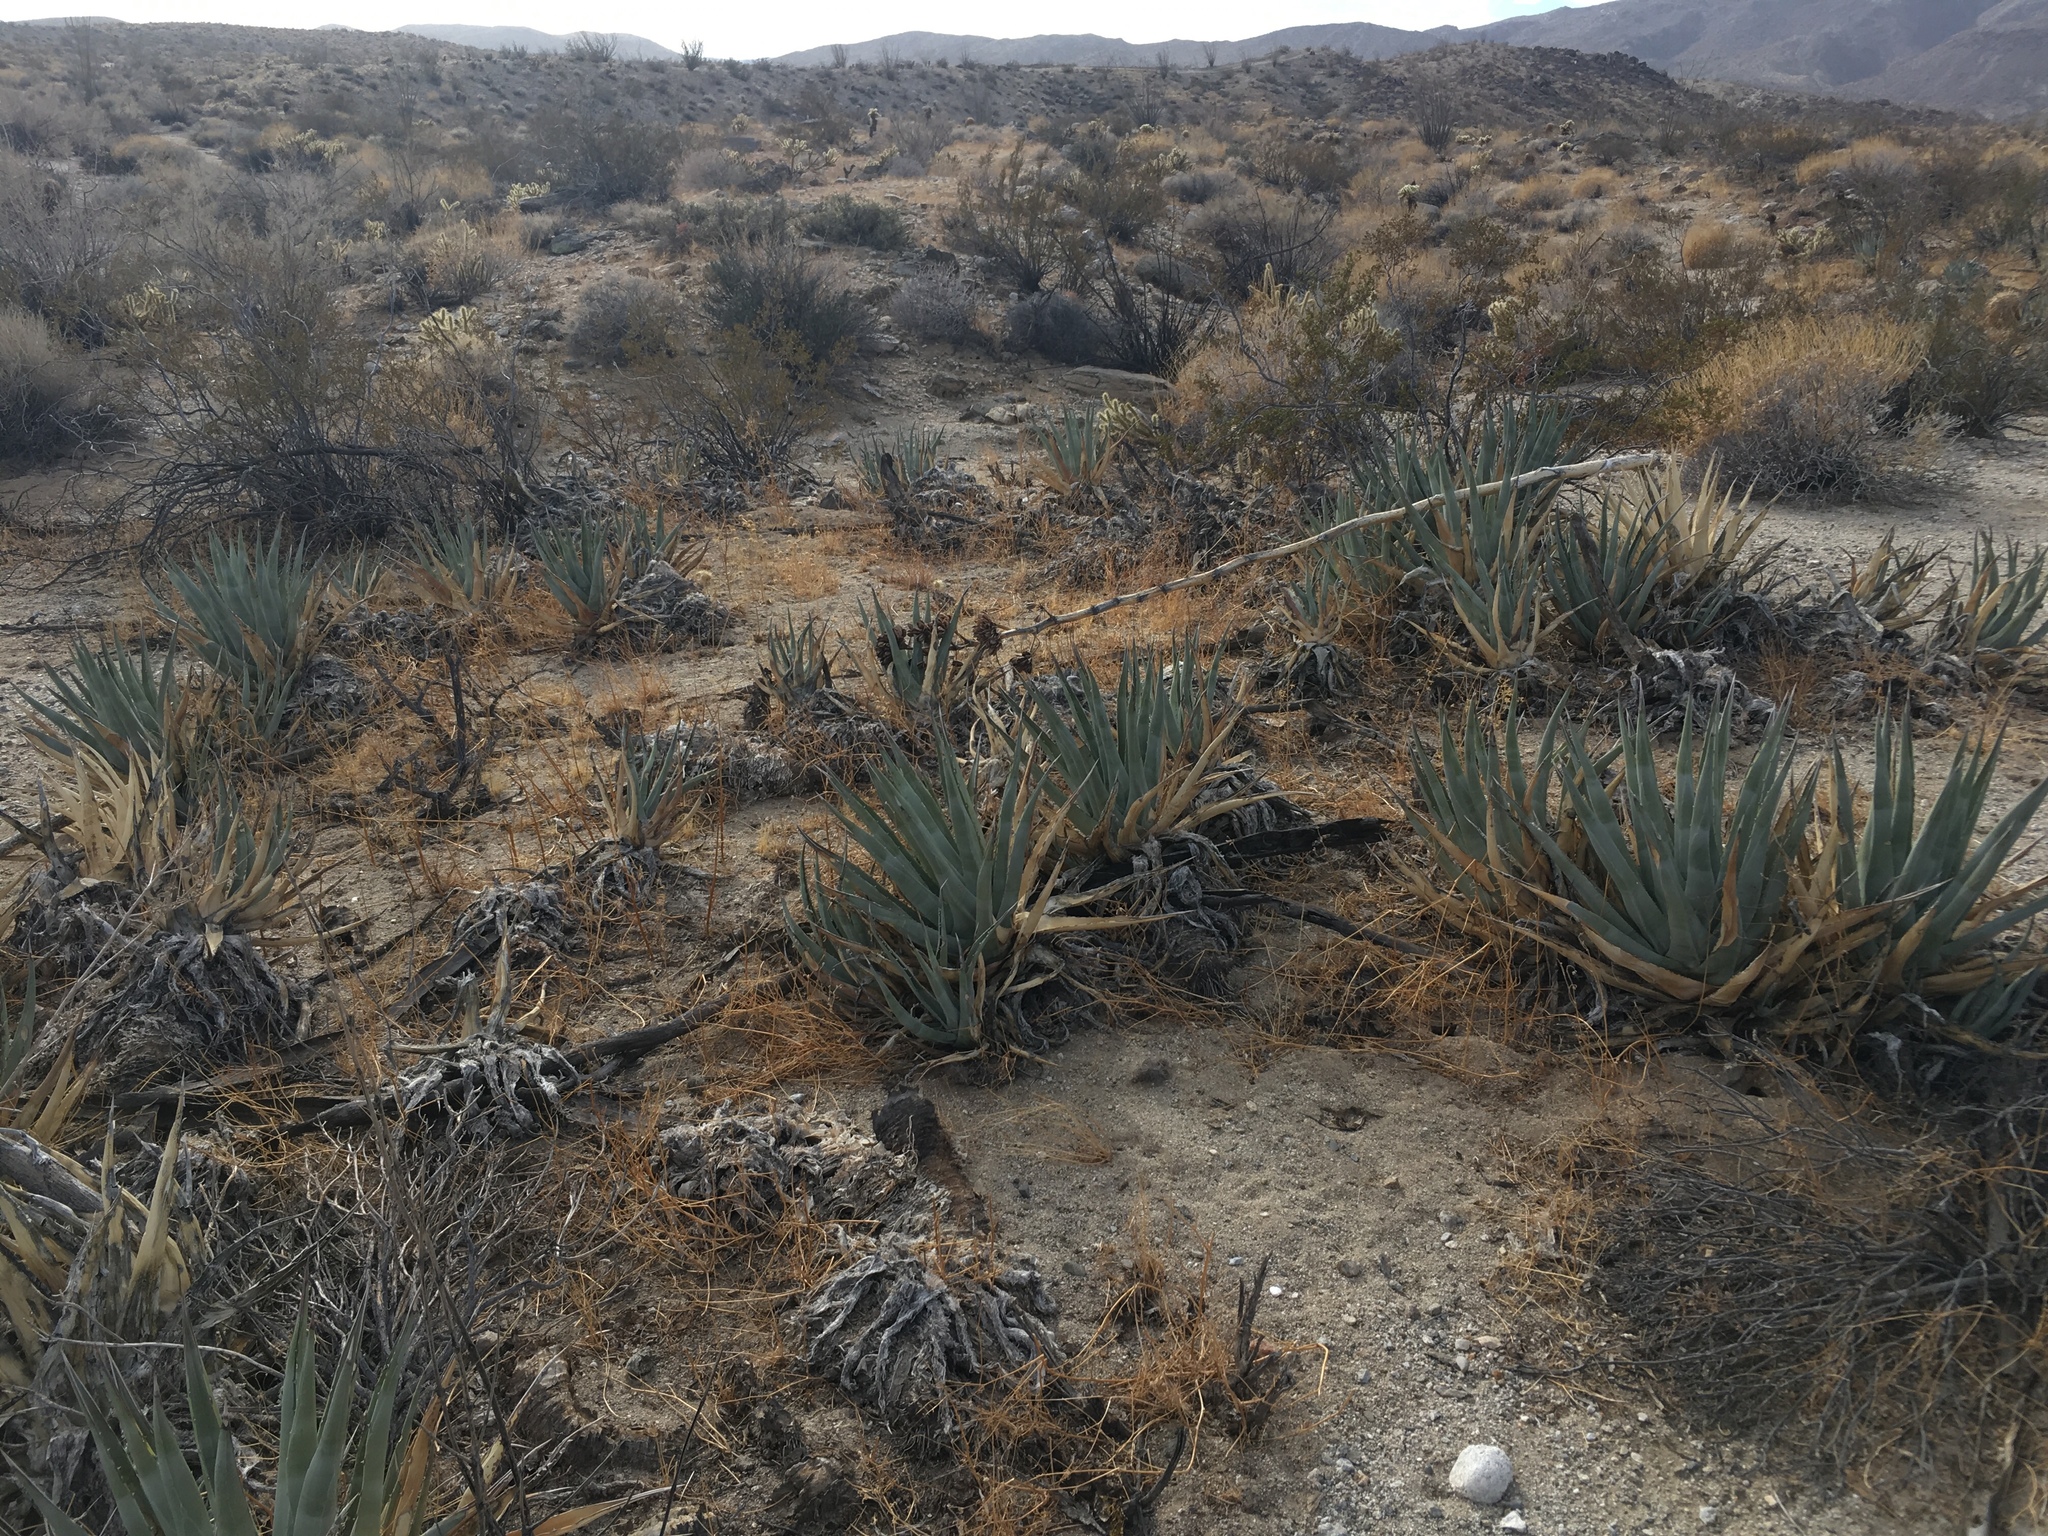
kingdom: Plantae
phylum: Tracheophyta
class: Liliopsida
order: Asparagales
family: Asparagaceae
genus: Agave
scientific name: Agave deserti
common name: Desert agave
